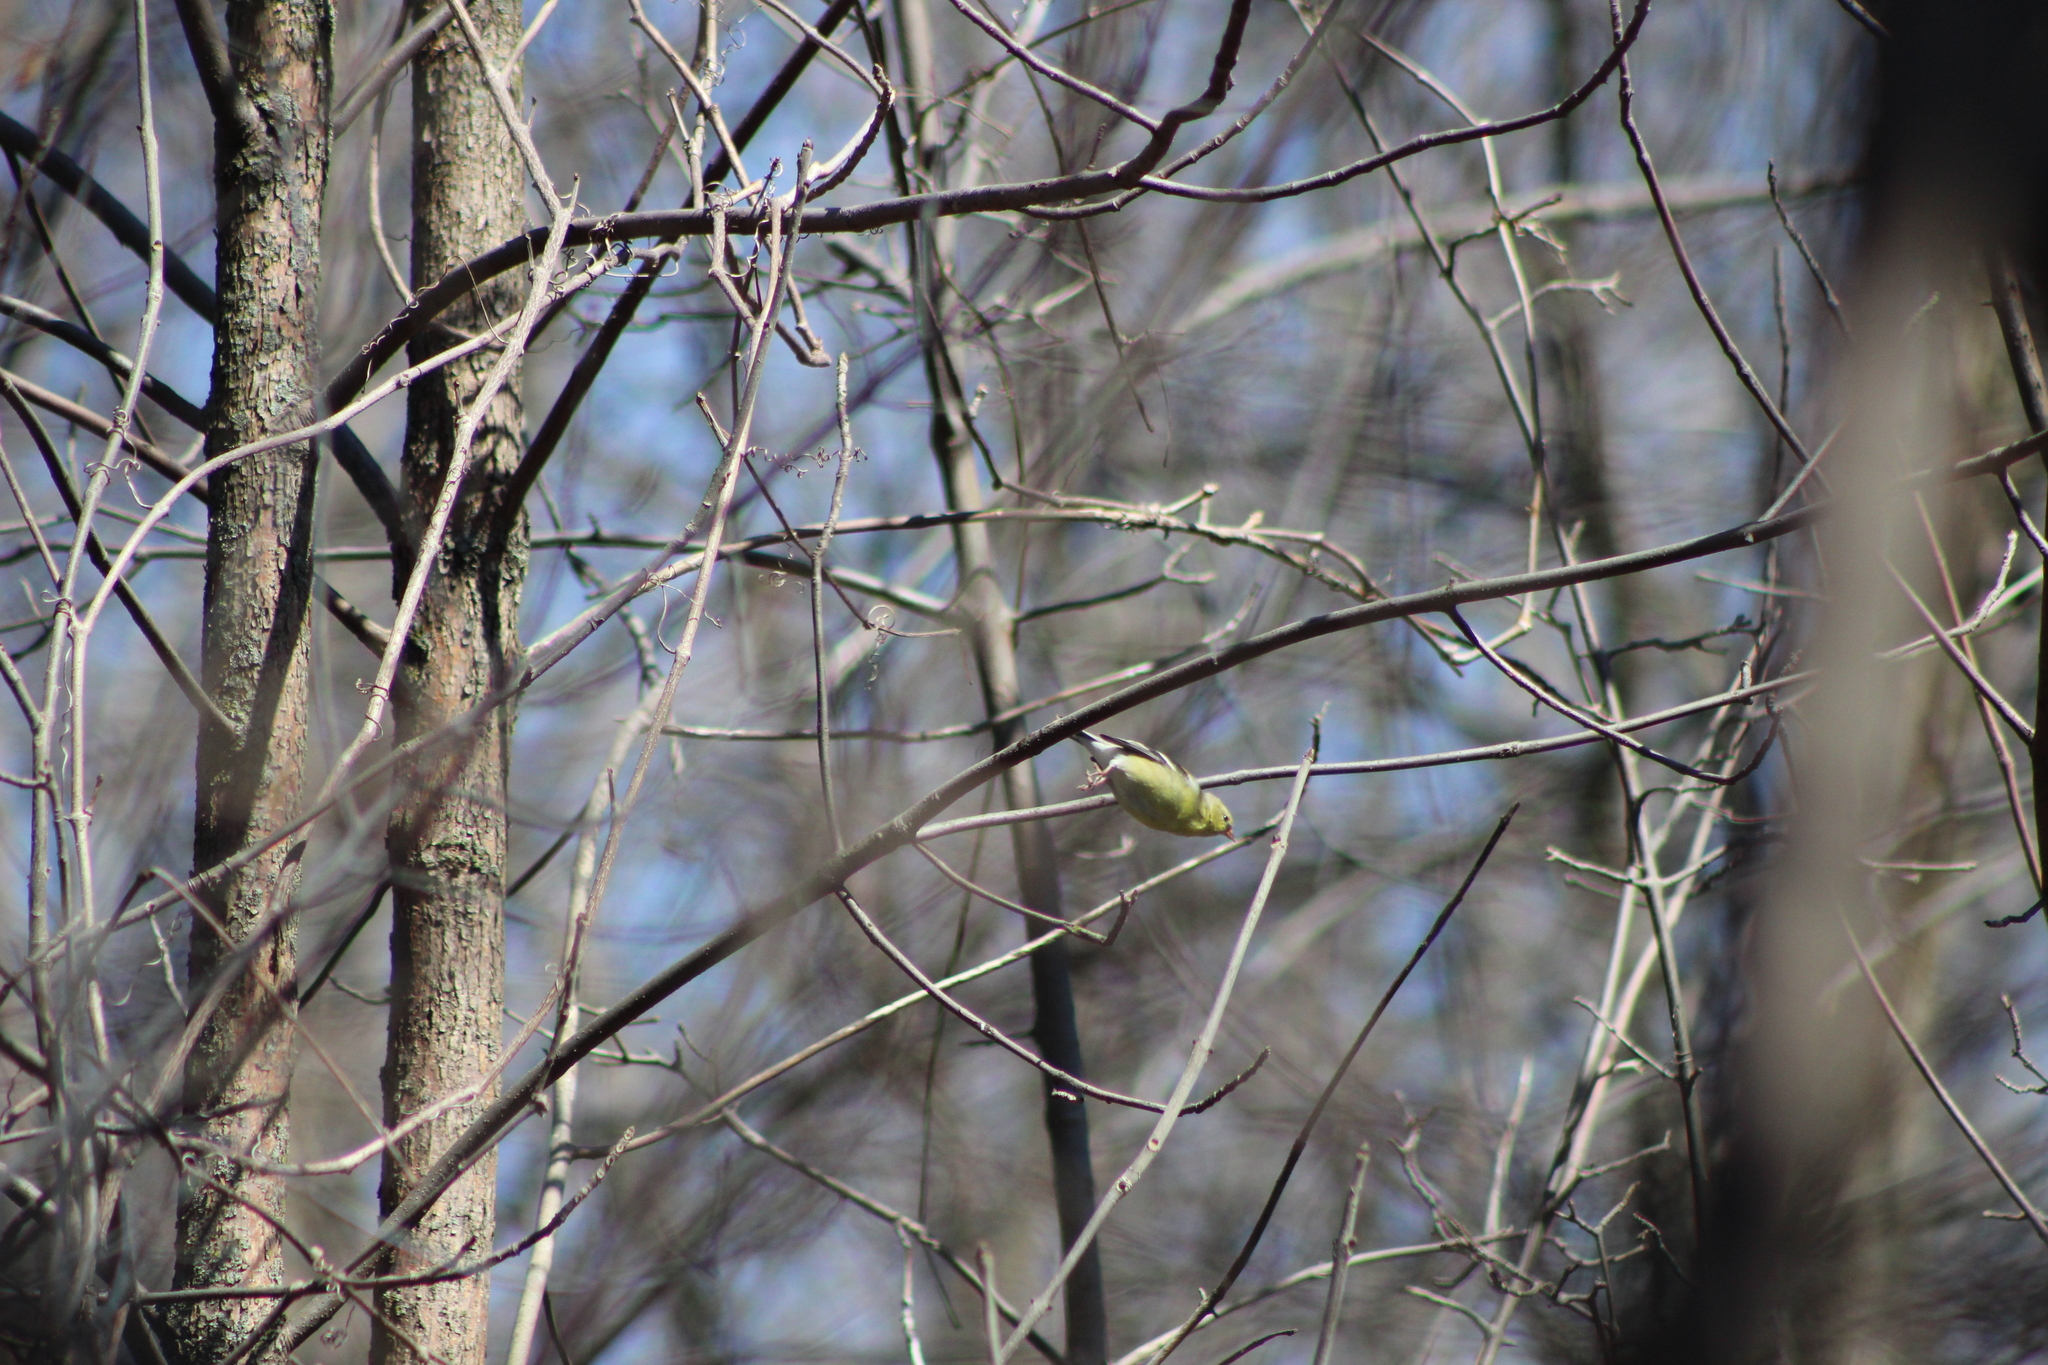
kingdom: Animalia
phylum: Chordata
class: Aves
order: Passeriformes
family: Fringillidae
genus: Spinus
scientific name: Spinus tristis
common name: American goldfinch
